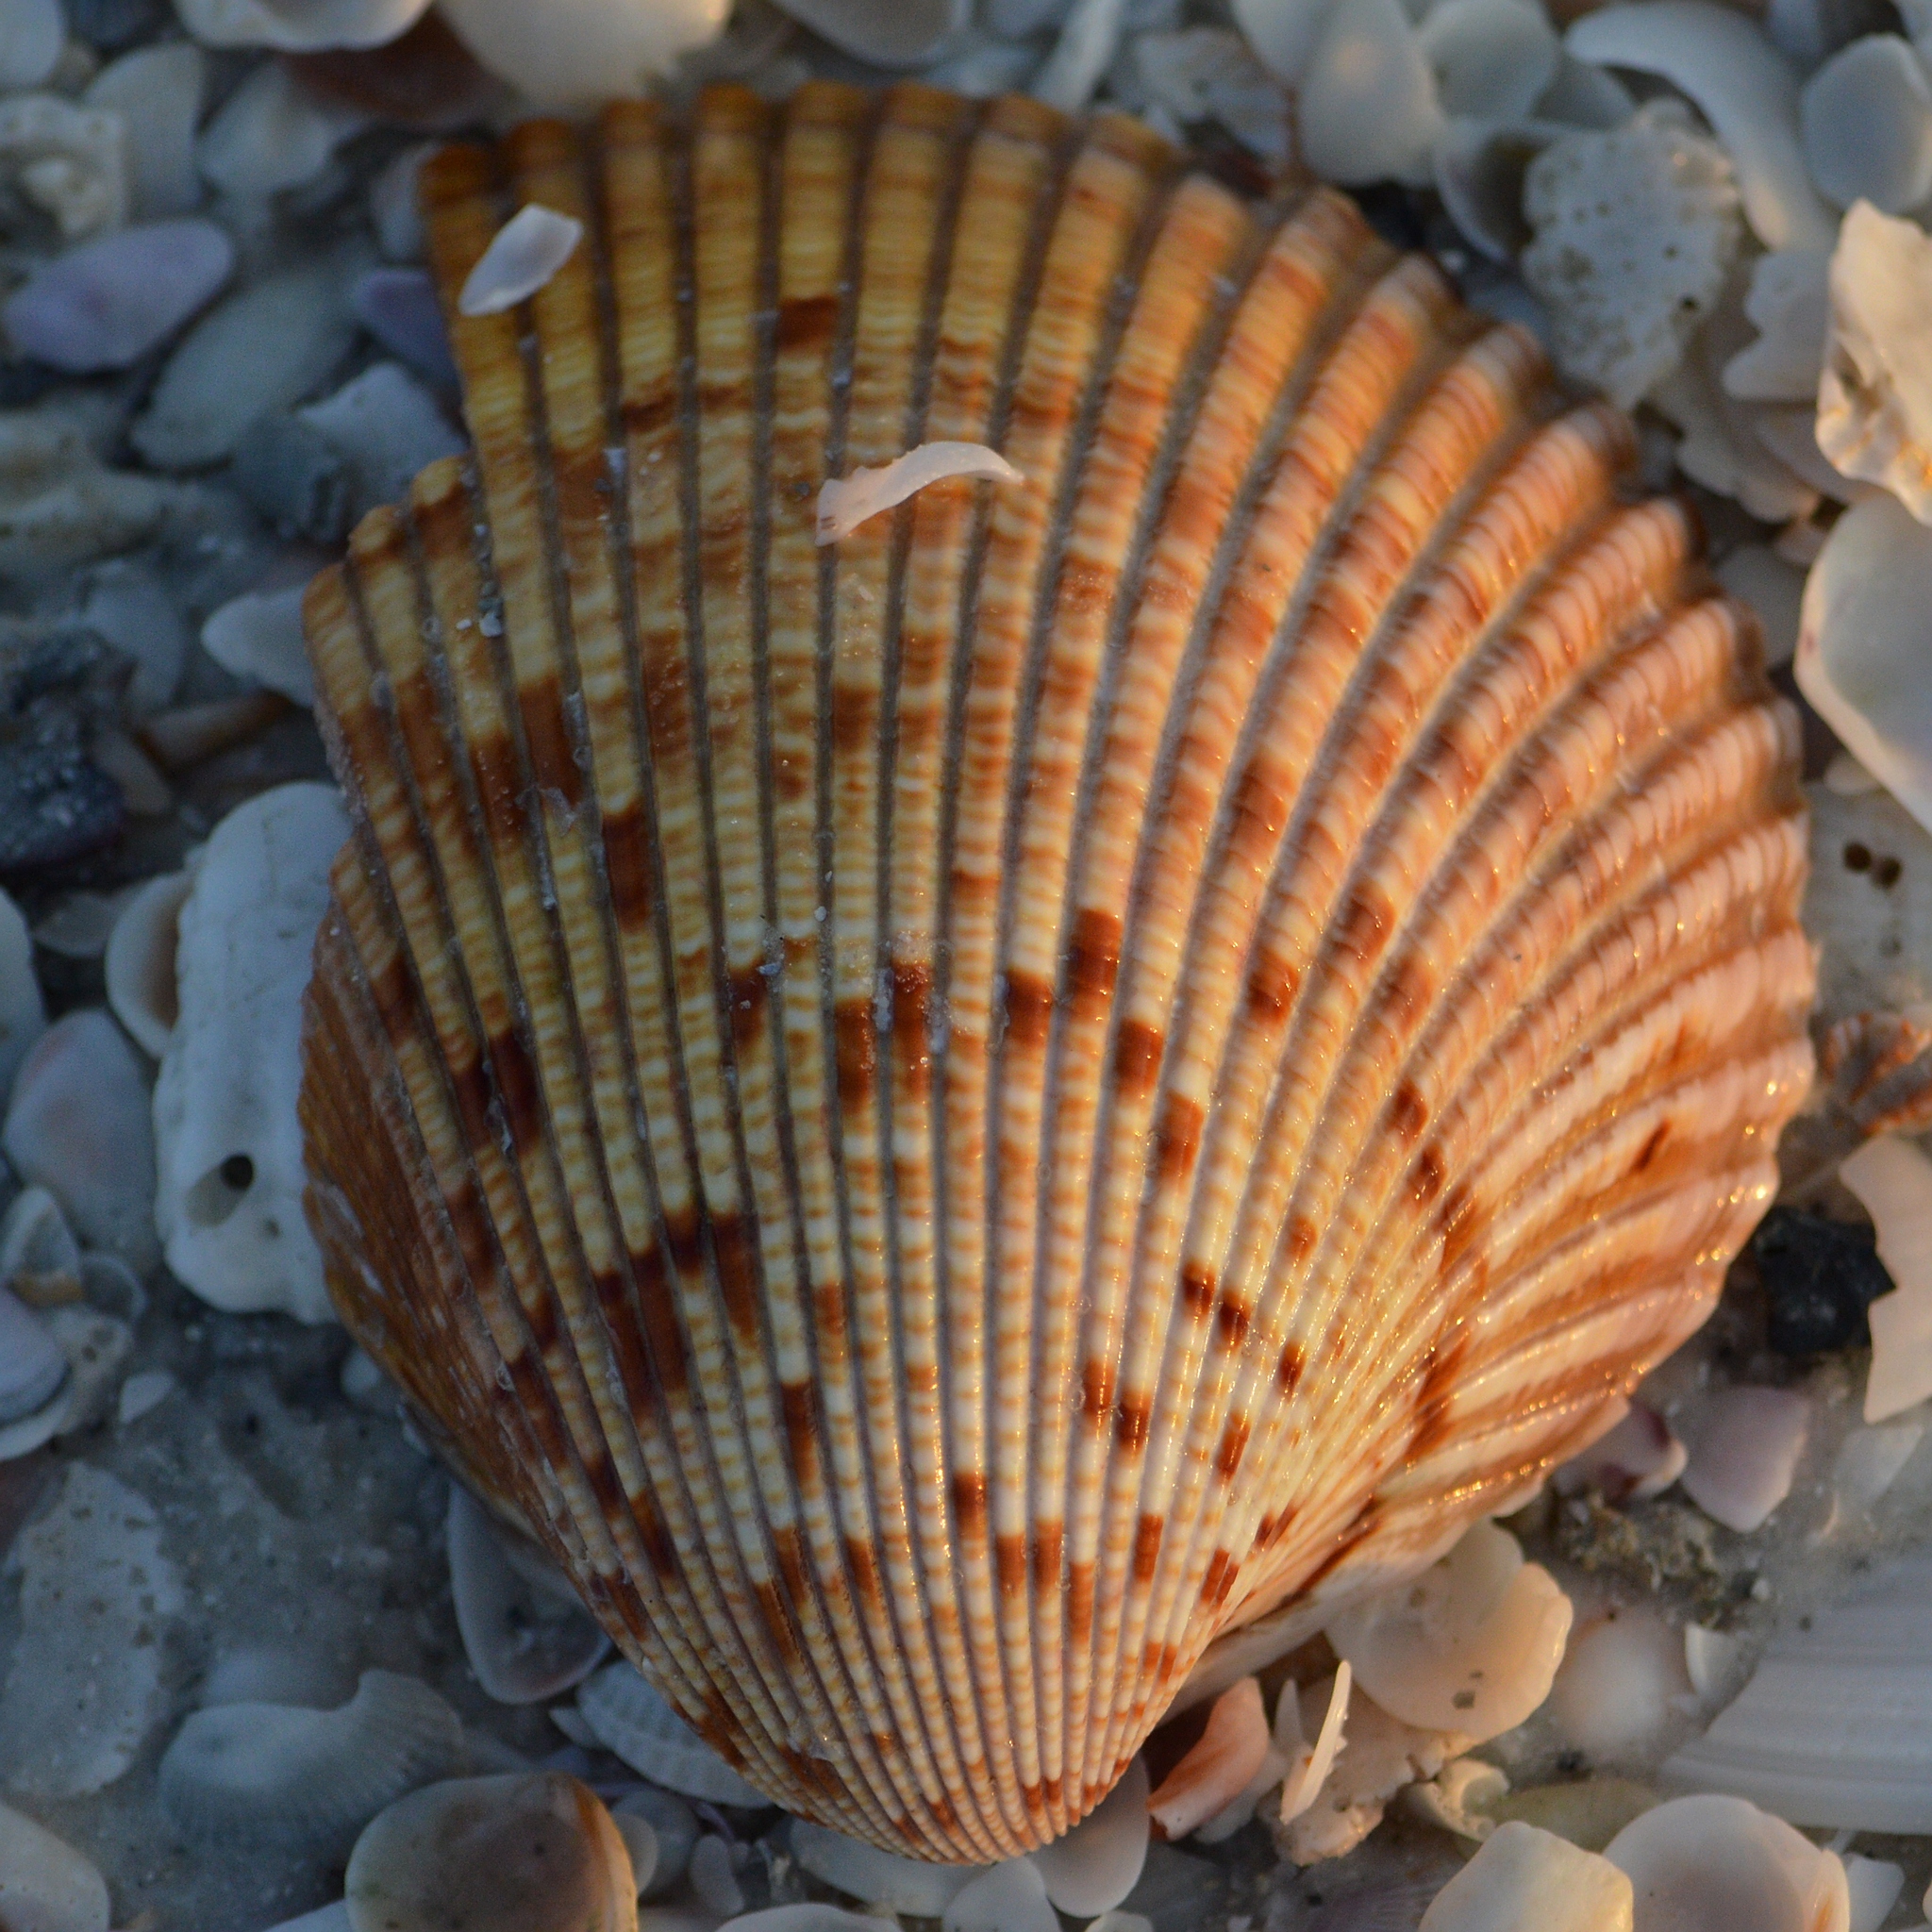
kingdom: Animalia
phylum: Mollusca
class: Bivalvia
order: Cardiida
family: Cardiidae
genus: Dinocardium
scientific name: Dinocardium robustum
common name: Atlantic giant cockle
